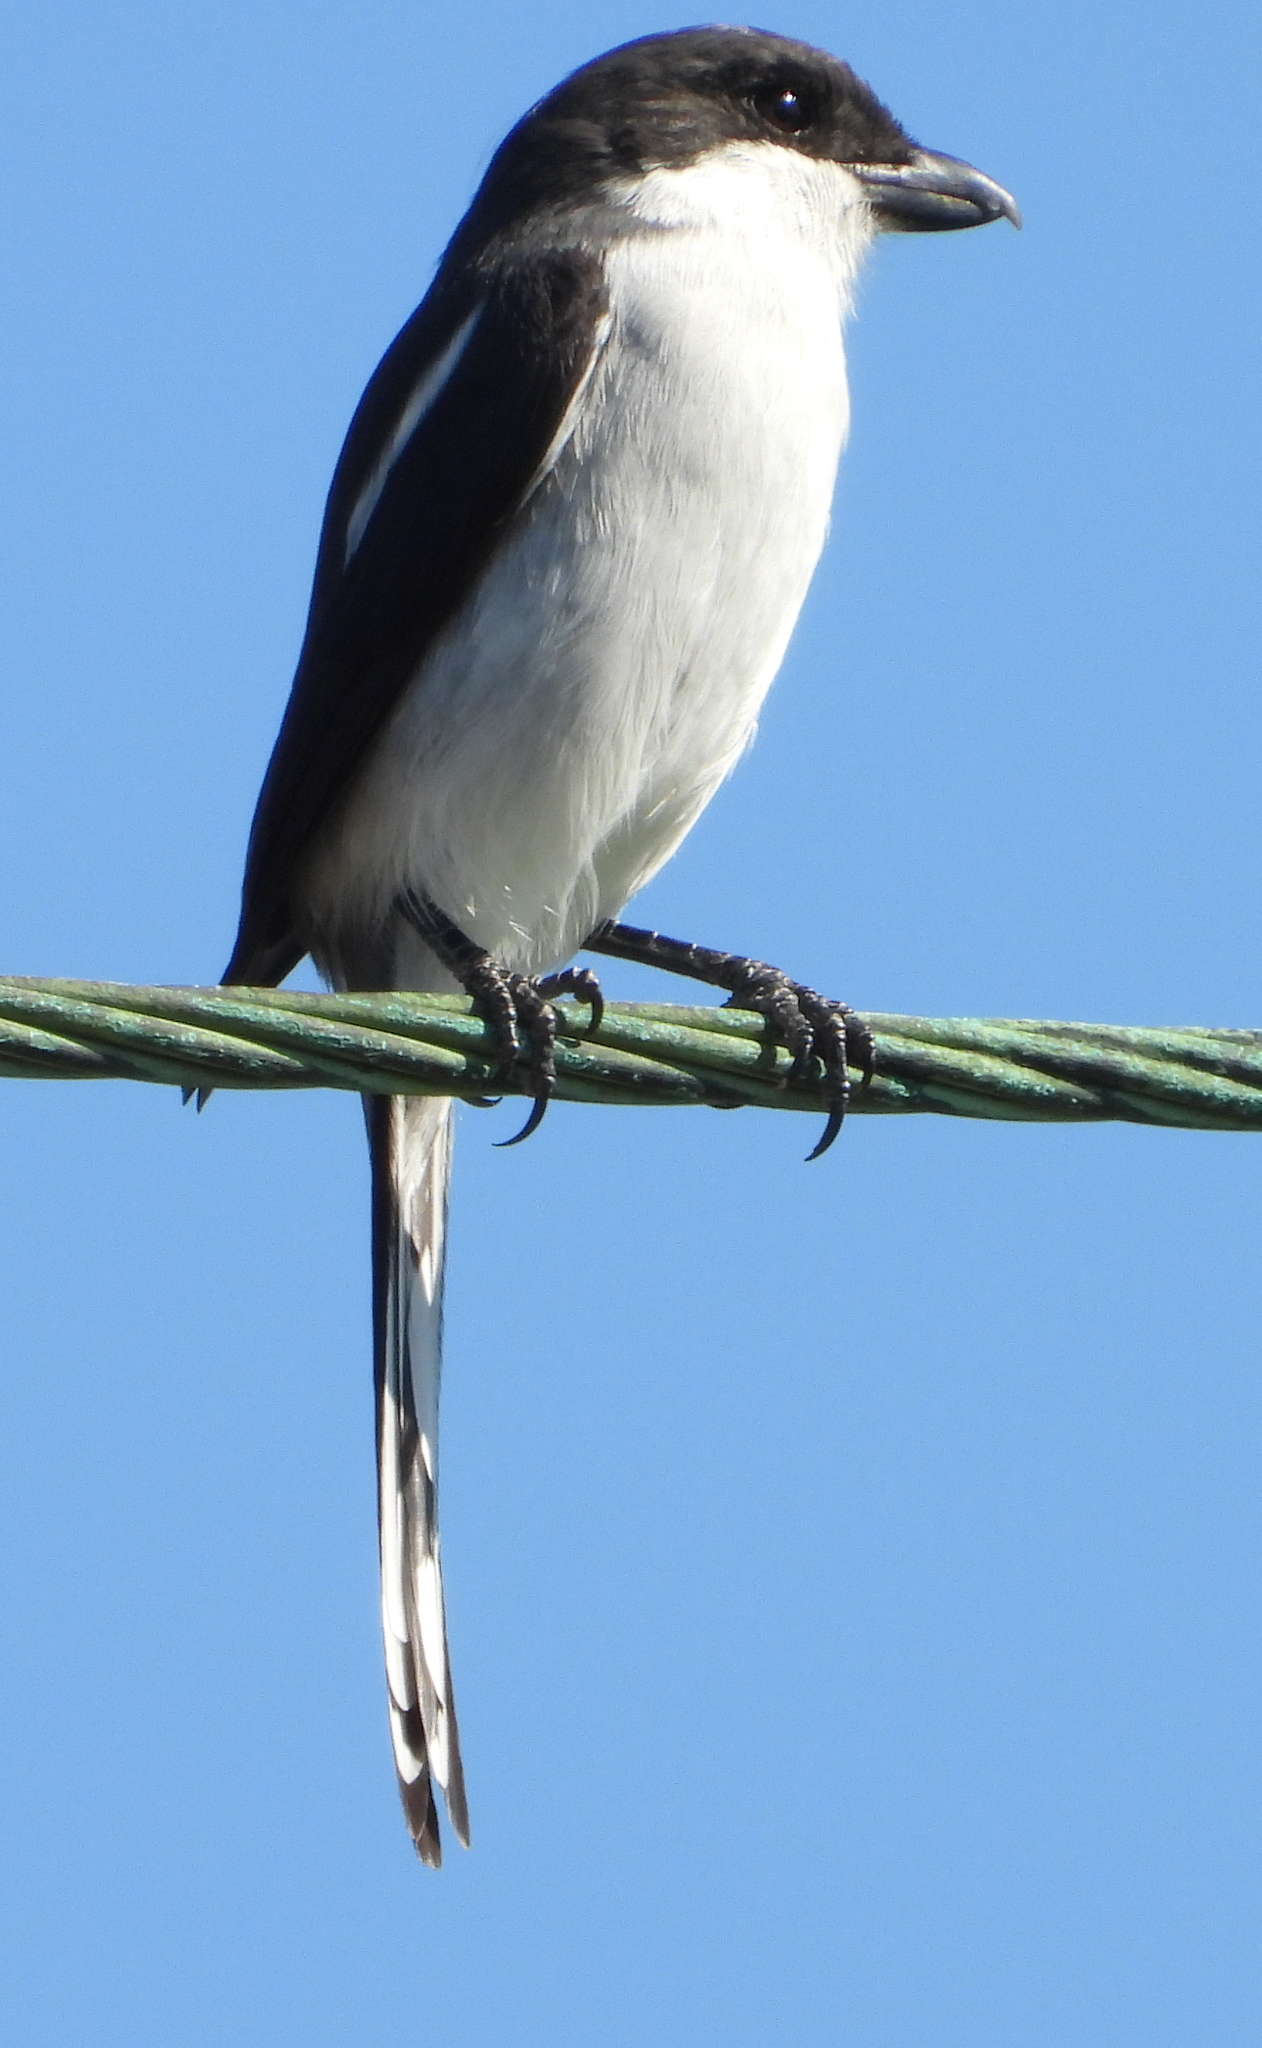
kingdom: Animalia
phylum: Chordata
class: Aves
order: Passeriformes
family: Laniidae
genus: Lanius
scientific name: Lanius collaris
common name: Southern fiscal
